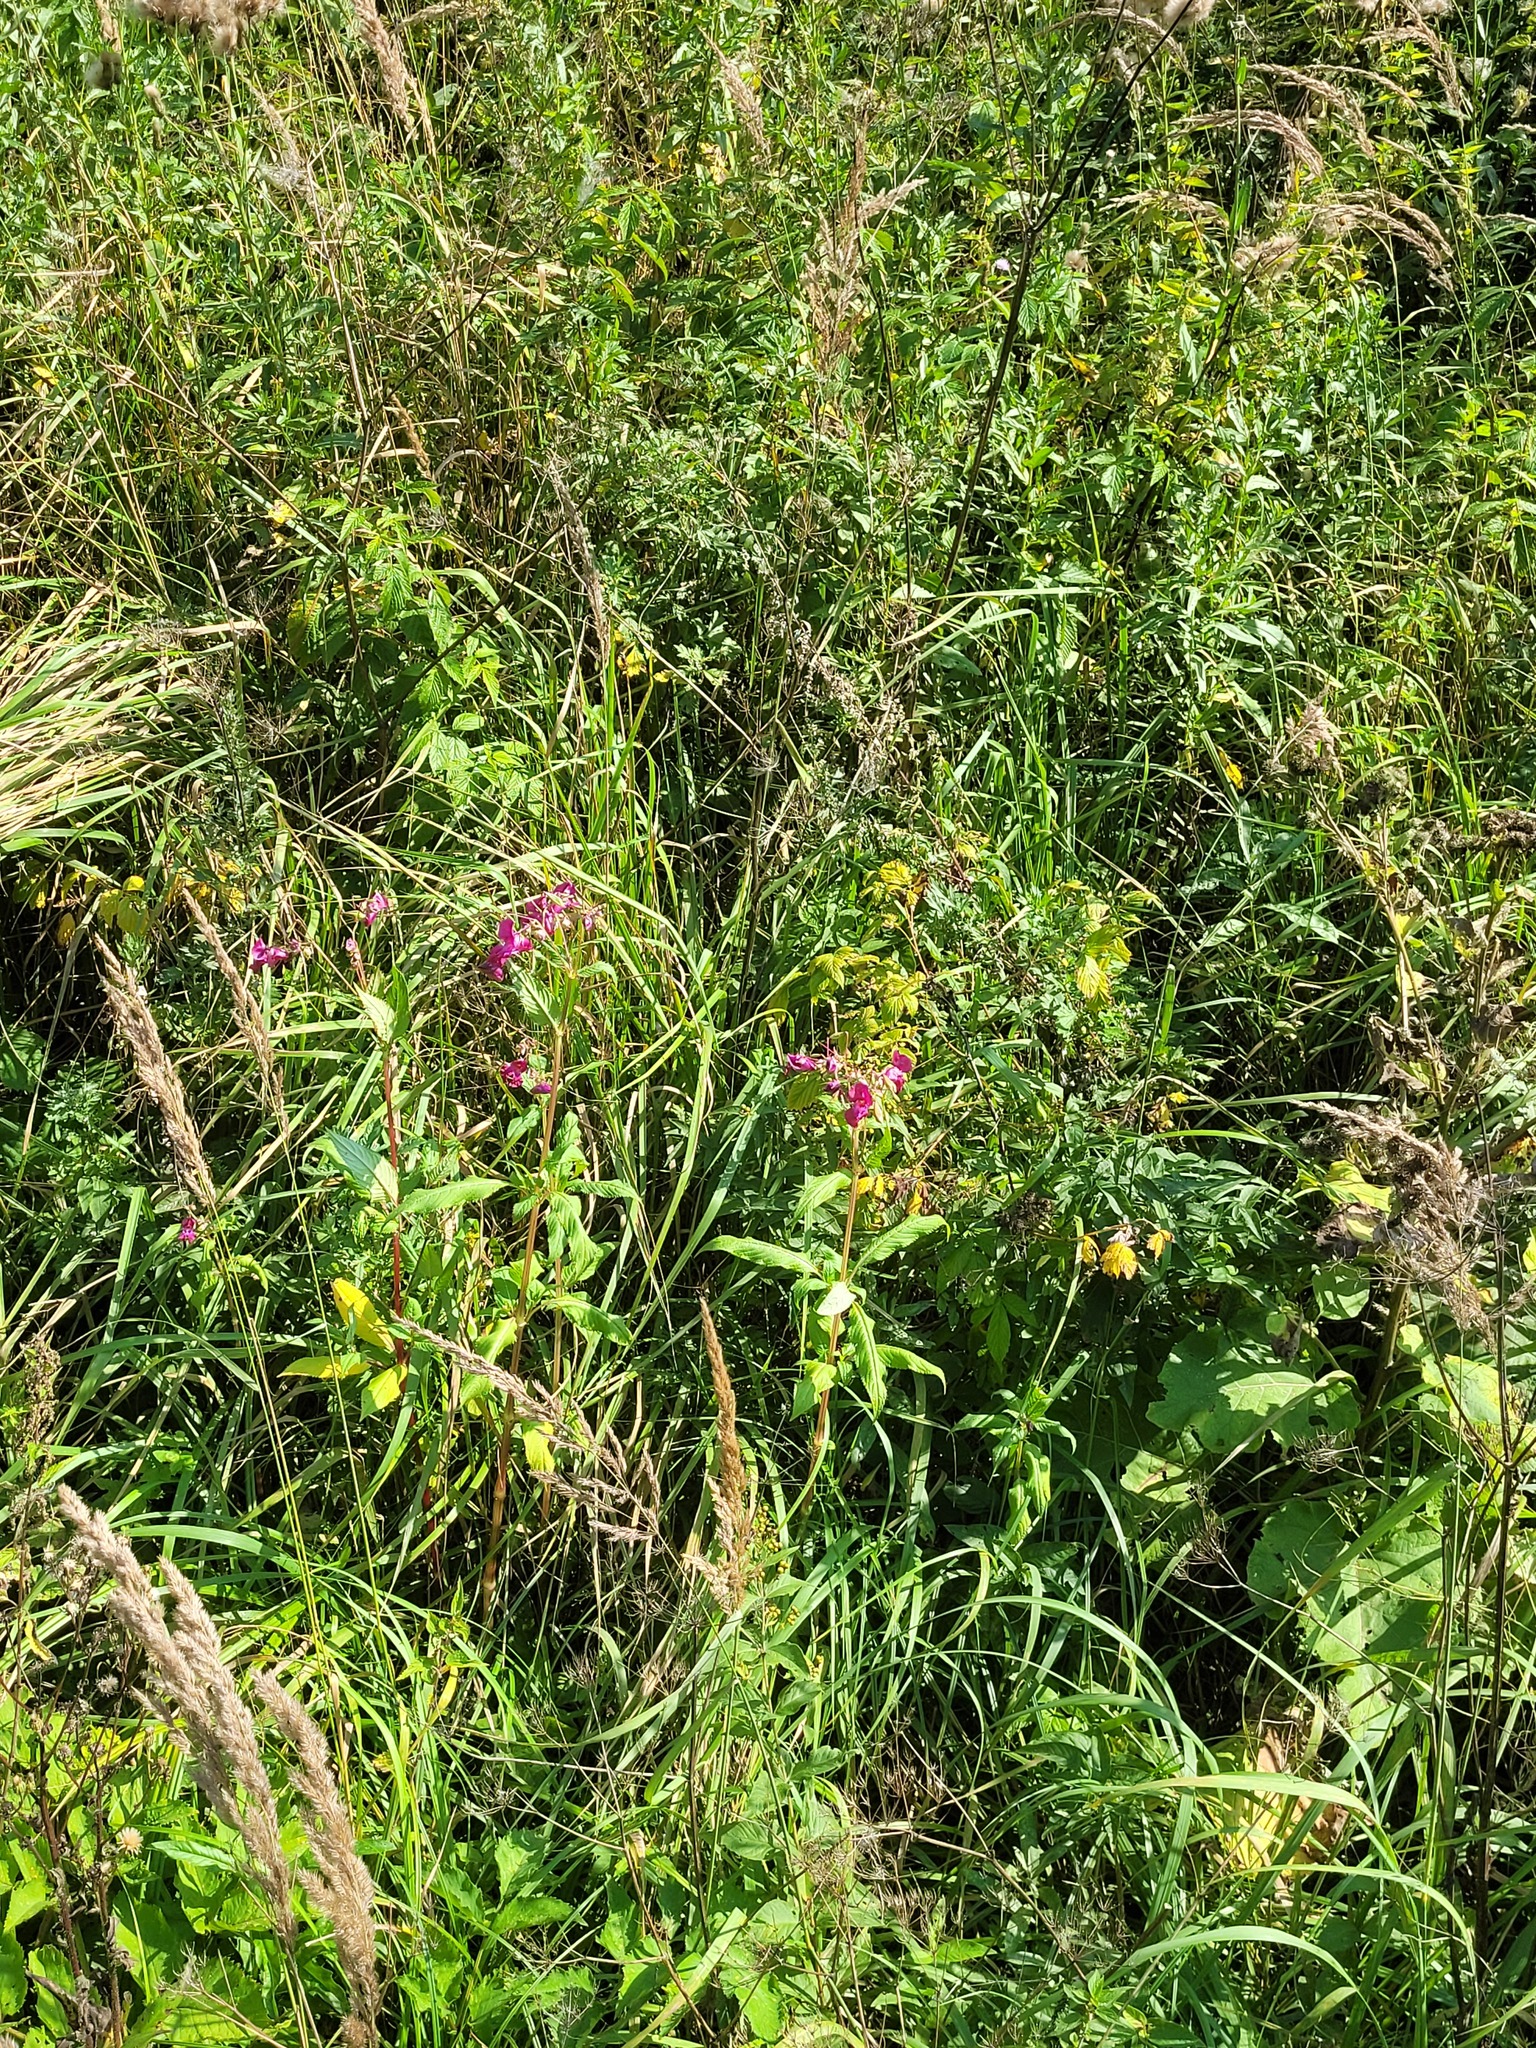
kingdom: Plantae
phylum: Tracheophyta
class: Magnoliopsida
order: Ericales
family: Balsaminaceae
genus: Impatiens
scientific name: Impatiens glandulifera
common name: Himalayan balsam
